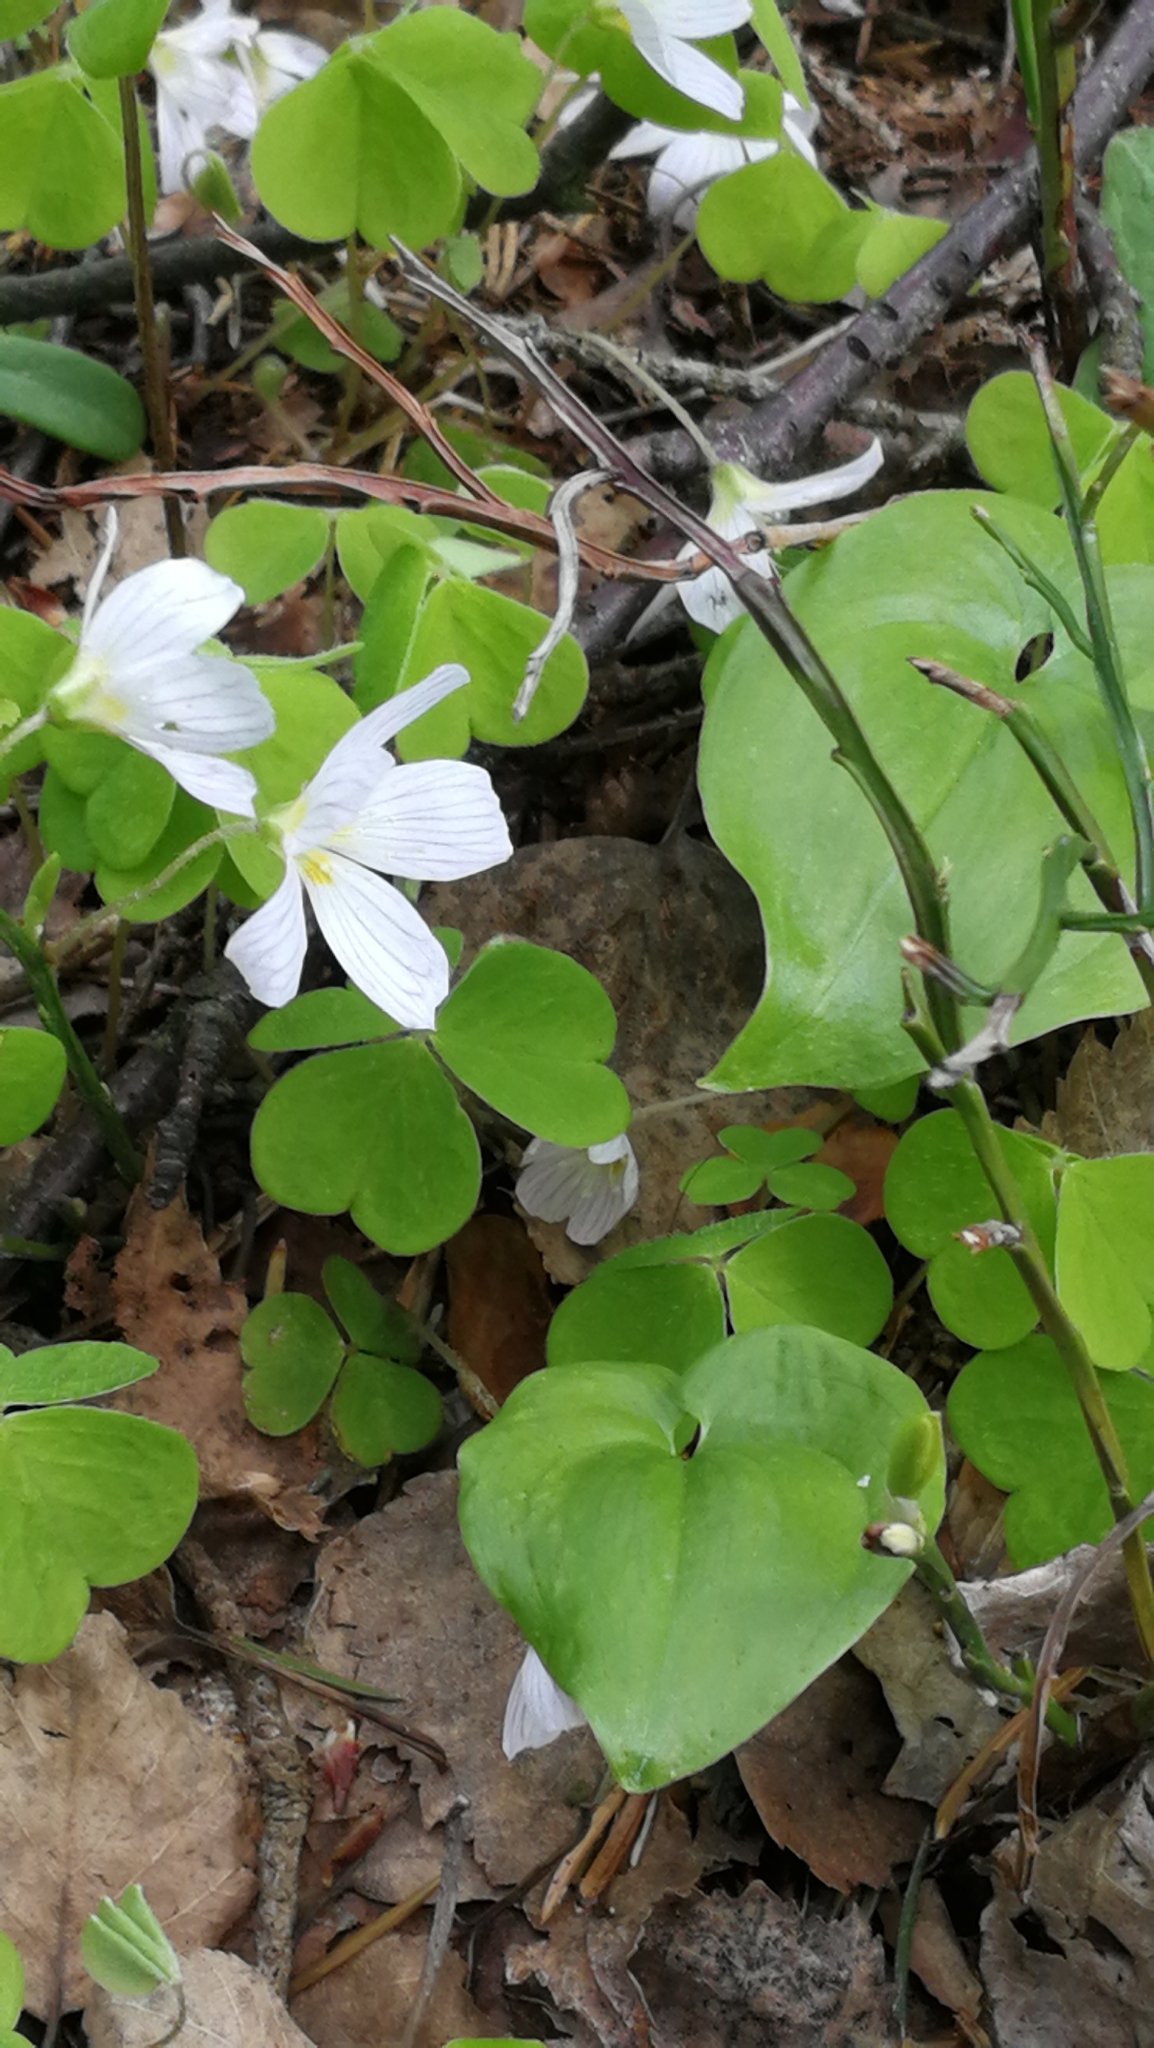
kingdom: Plantae
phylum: Tracheophyta
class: Magnoliopsida
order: Oxalidales
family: Oxalidaceae
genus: Oxalis
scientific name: Oxalis acetosella
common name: Wood-sorrel
